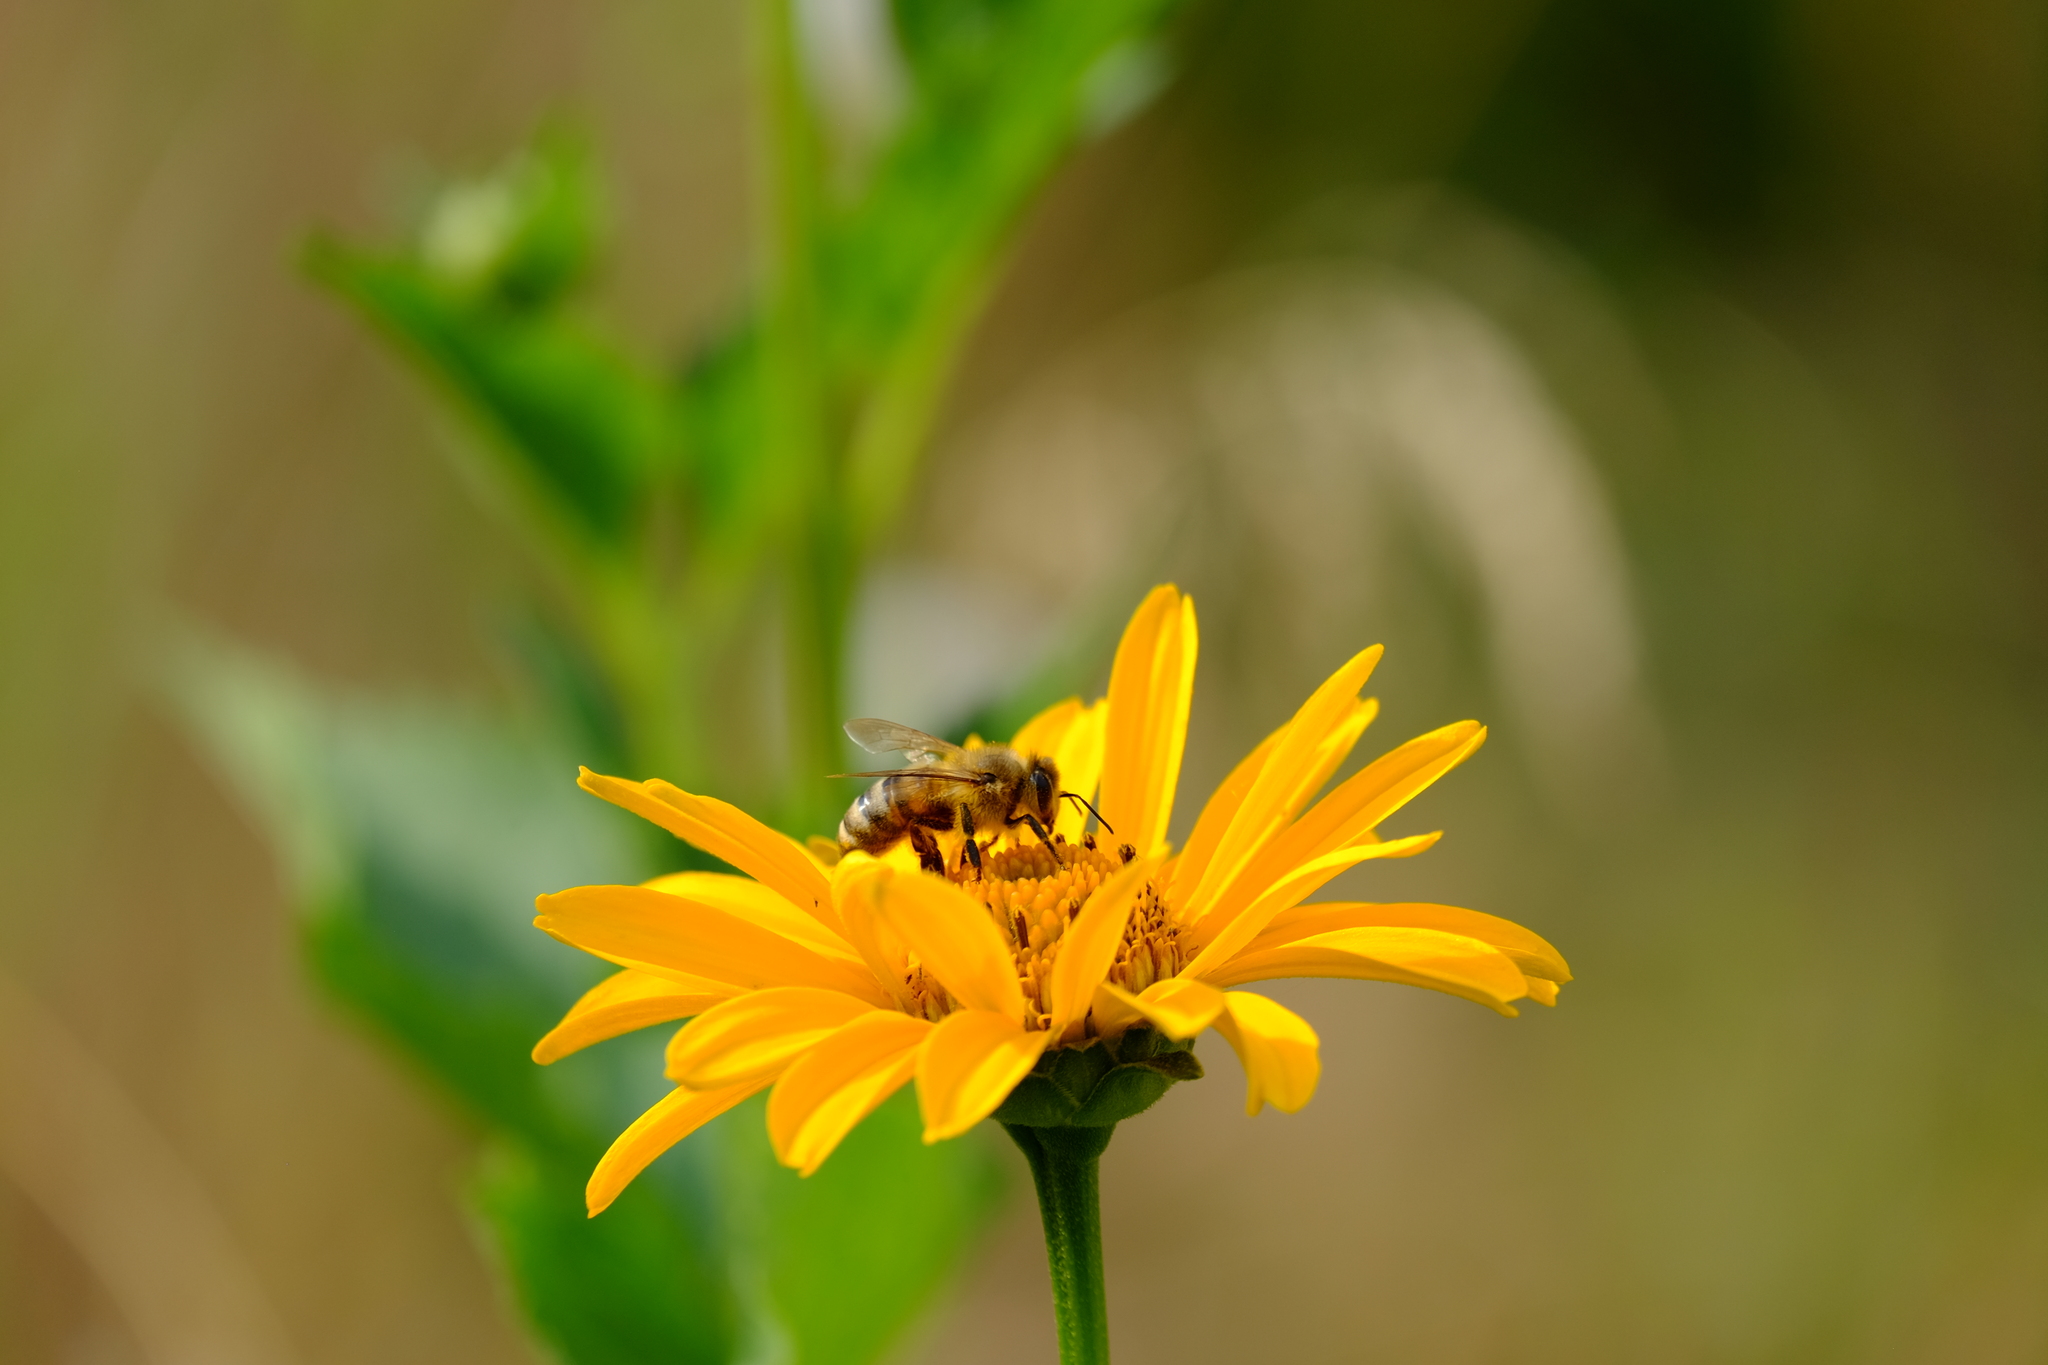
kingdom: Animalia
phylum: Arthropoda
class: Insecta
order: Hymenoptera
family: Apidae
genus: Apis
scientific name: Apis mellifera
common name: Honey bee
